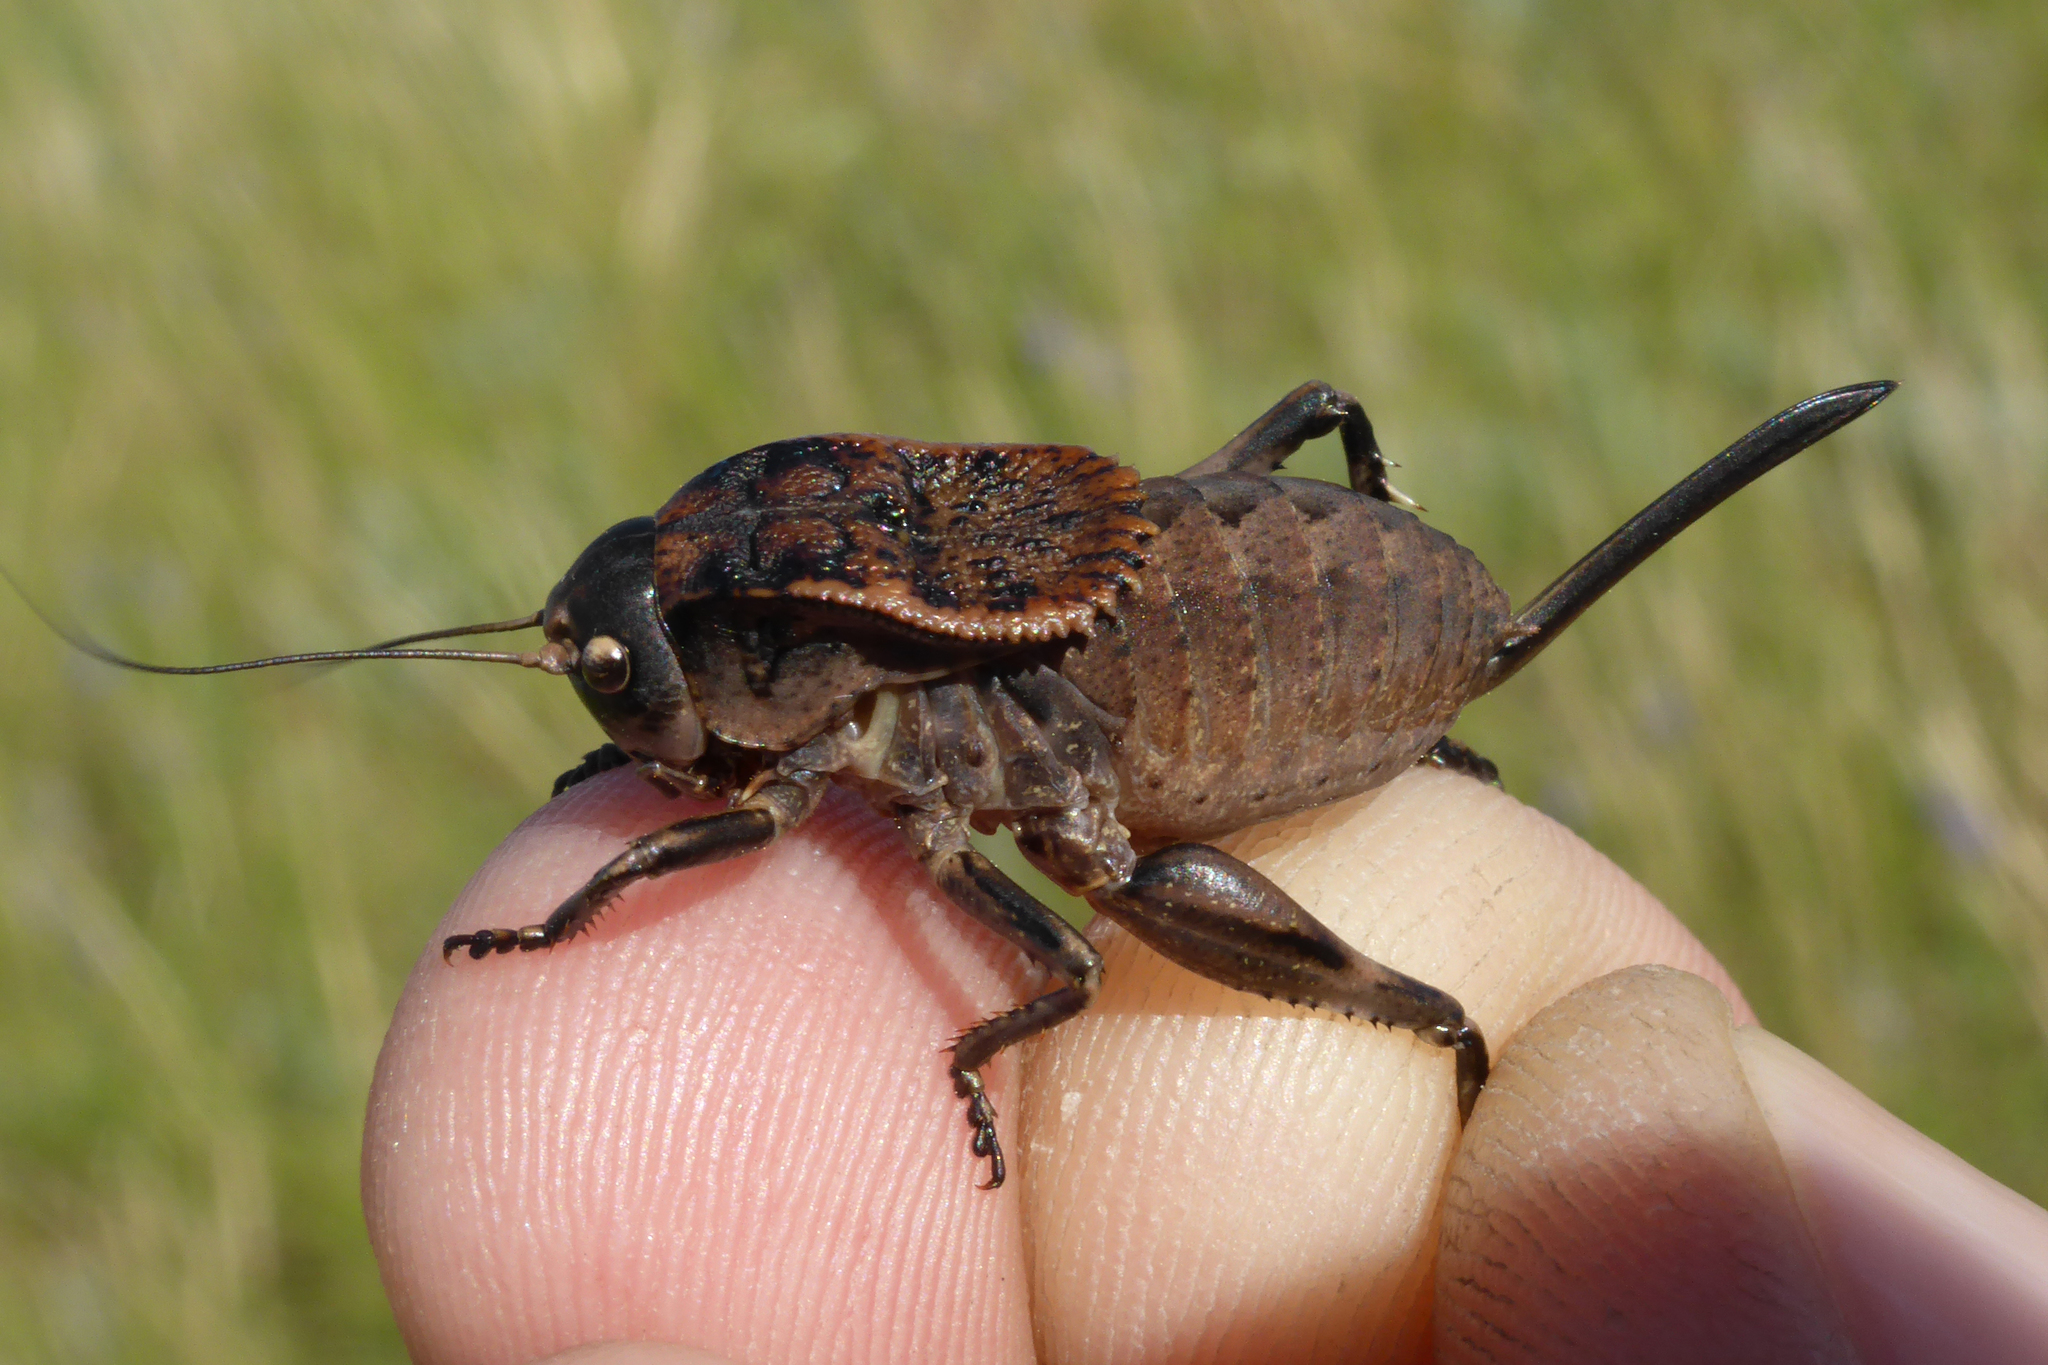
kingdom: Animalia
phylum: Arthropoda
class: Insecta
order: Orthoptera
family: Tettigoniidae
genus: Onconotus
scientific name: Onconotus servillei
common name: Southern barbed-wire bush-cricket
